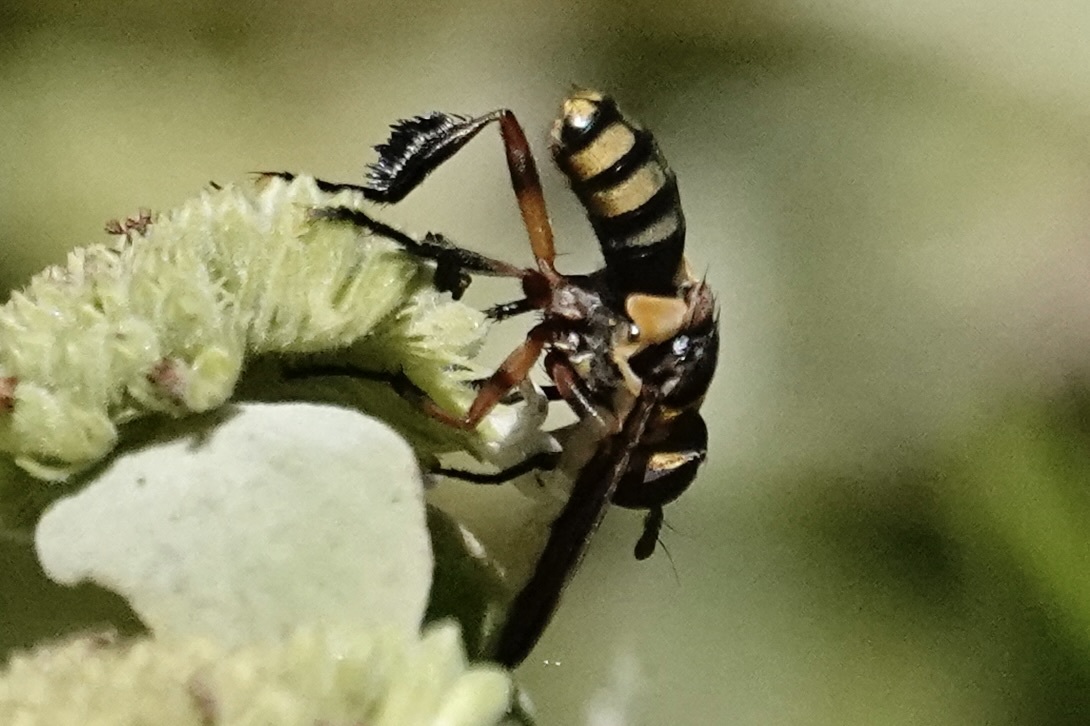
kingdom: Animalia
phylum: Arthropoda
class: Insecta
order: Diptera
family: Tachinidae
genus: Trichopoda
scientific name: Trichopoda plumipes
